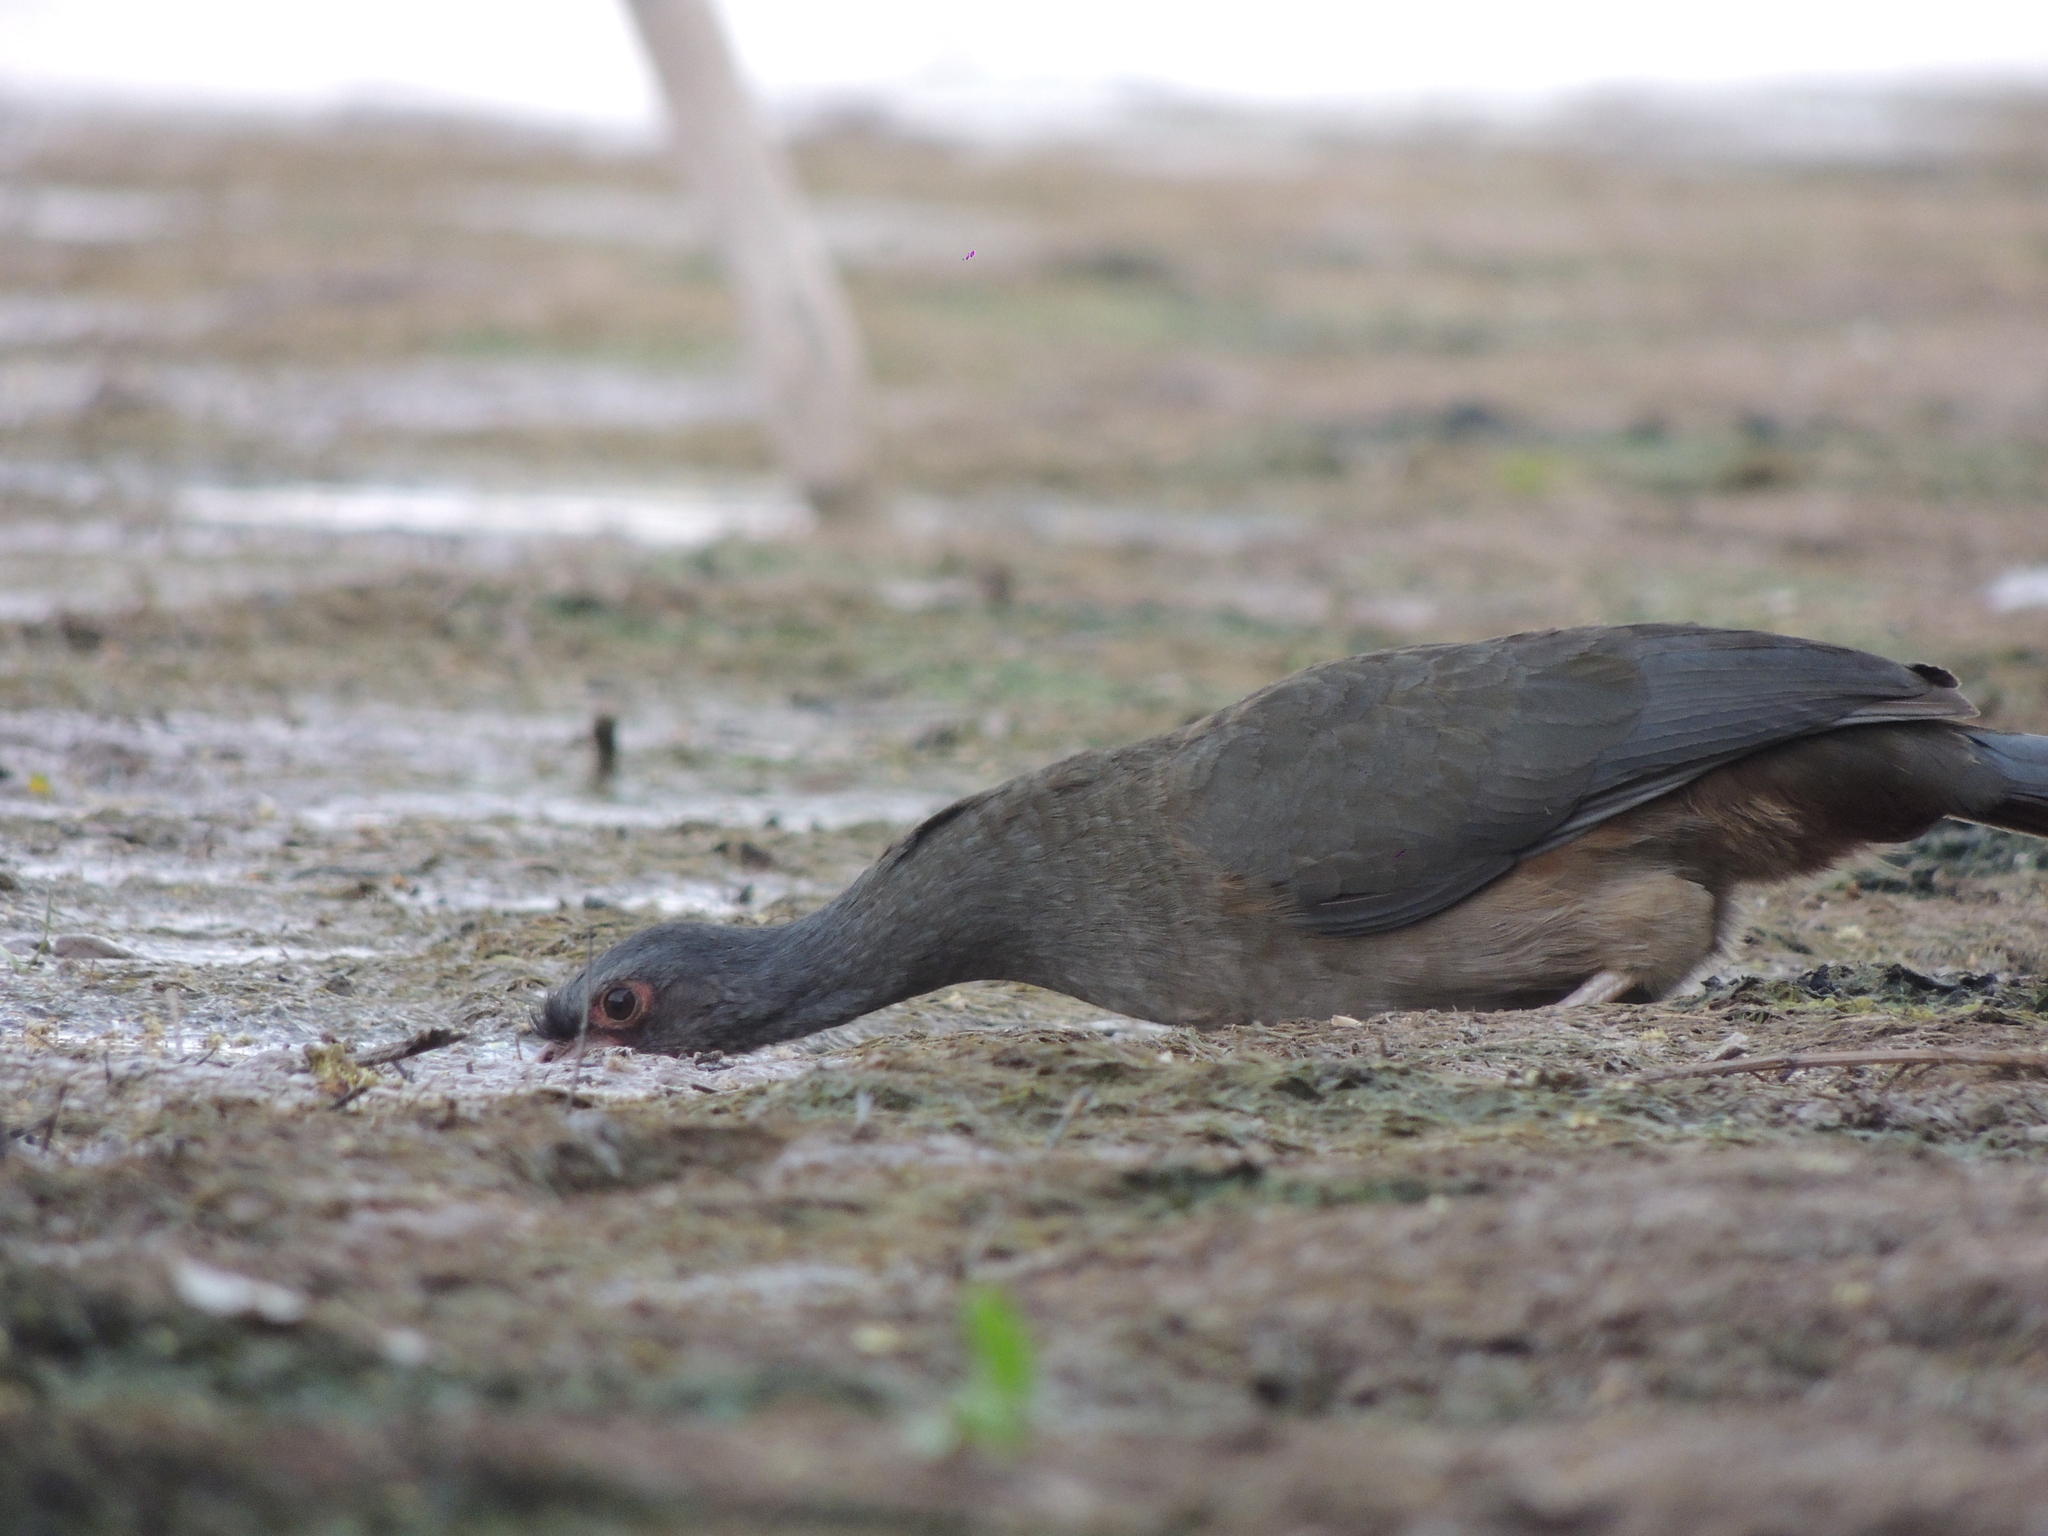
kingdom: Animalia
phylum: Chordata
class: Aves
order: Galliformes
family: Cracidae
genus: Ortalis
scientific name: Ortalis canicollis
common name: Chaco chachalaca
